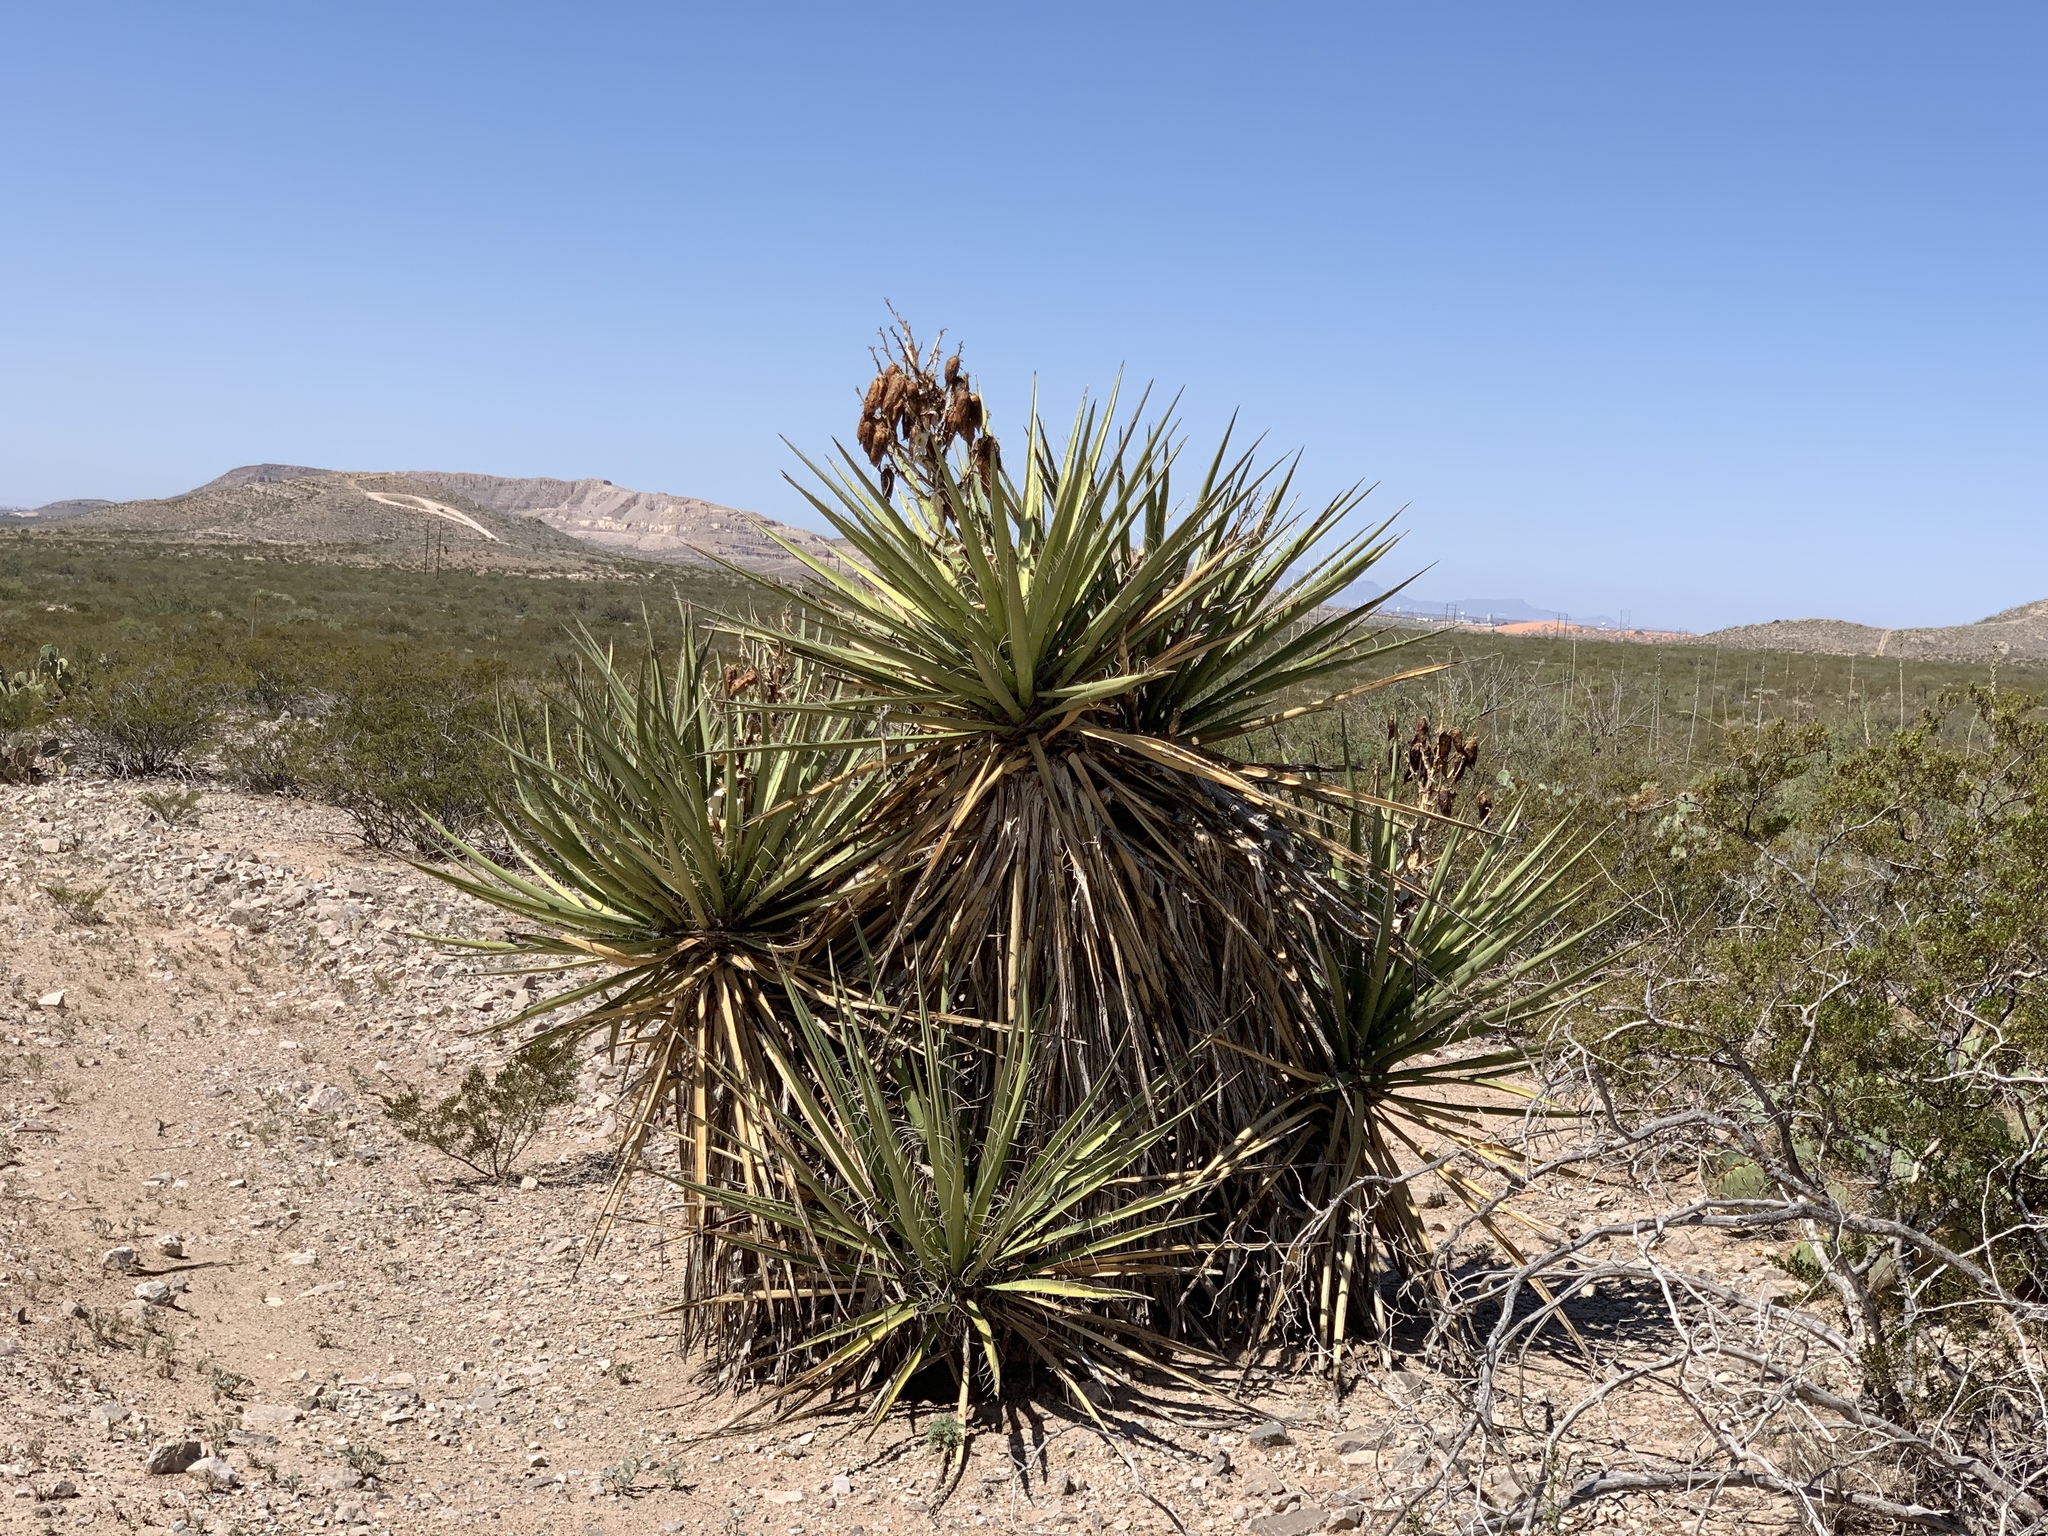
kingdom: Plantae
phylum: Tracheophyta
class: Liliopsida
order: Asparagales
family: Asparagaceae
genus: Yucca
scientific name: Yucca treculiana
